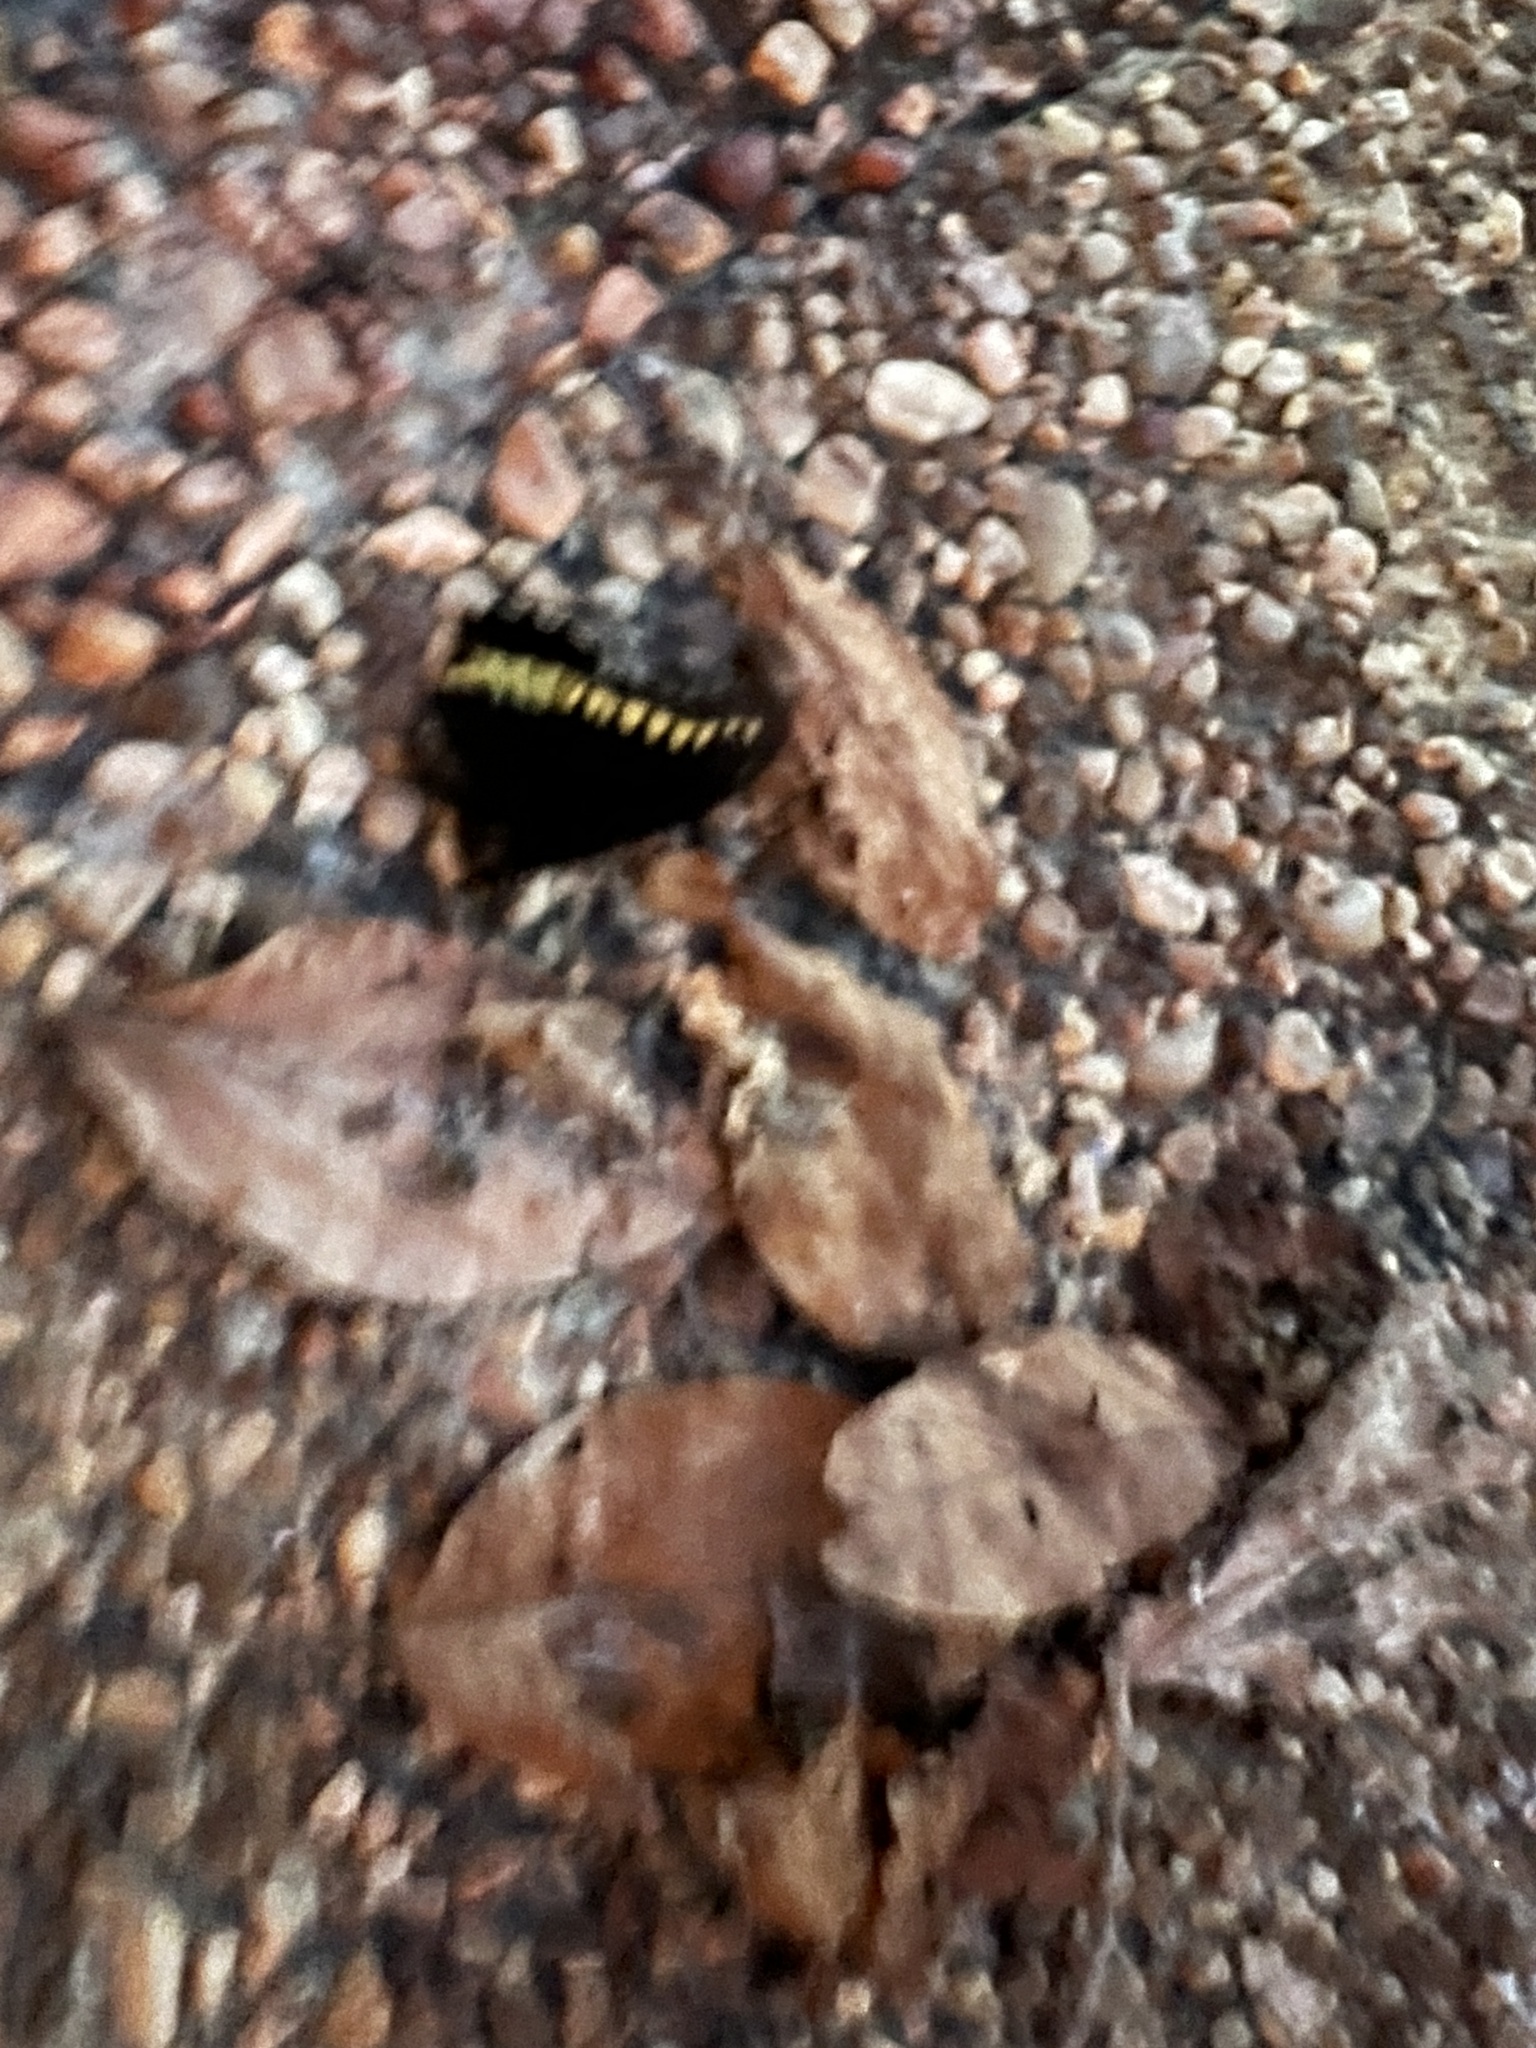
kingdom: Animalia
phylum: Arthropoda
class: Insecta
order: Lepidoptera
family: Papilionidae
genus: Battus
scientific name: Battus polydamas
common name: Polydamas swallowtail
